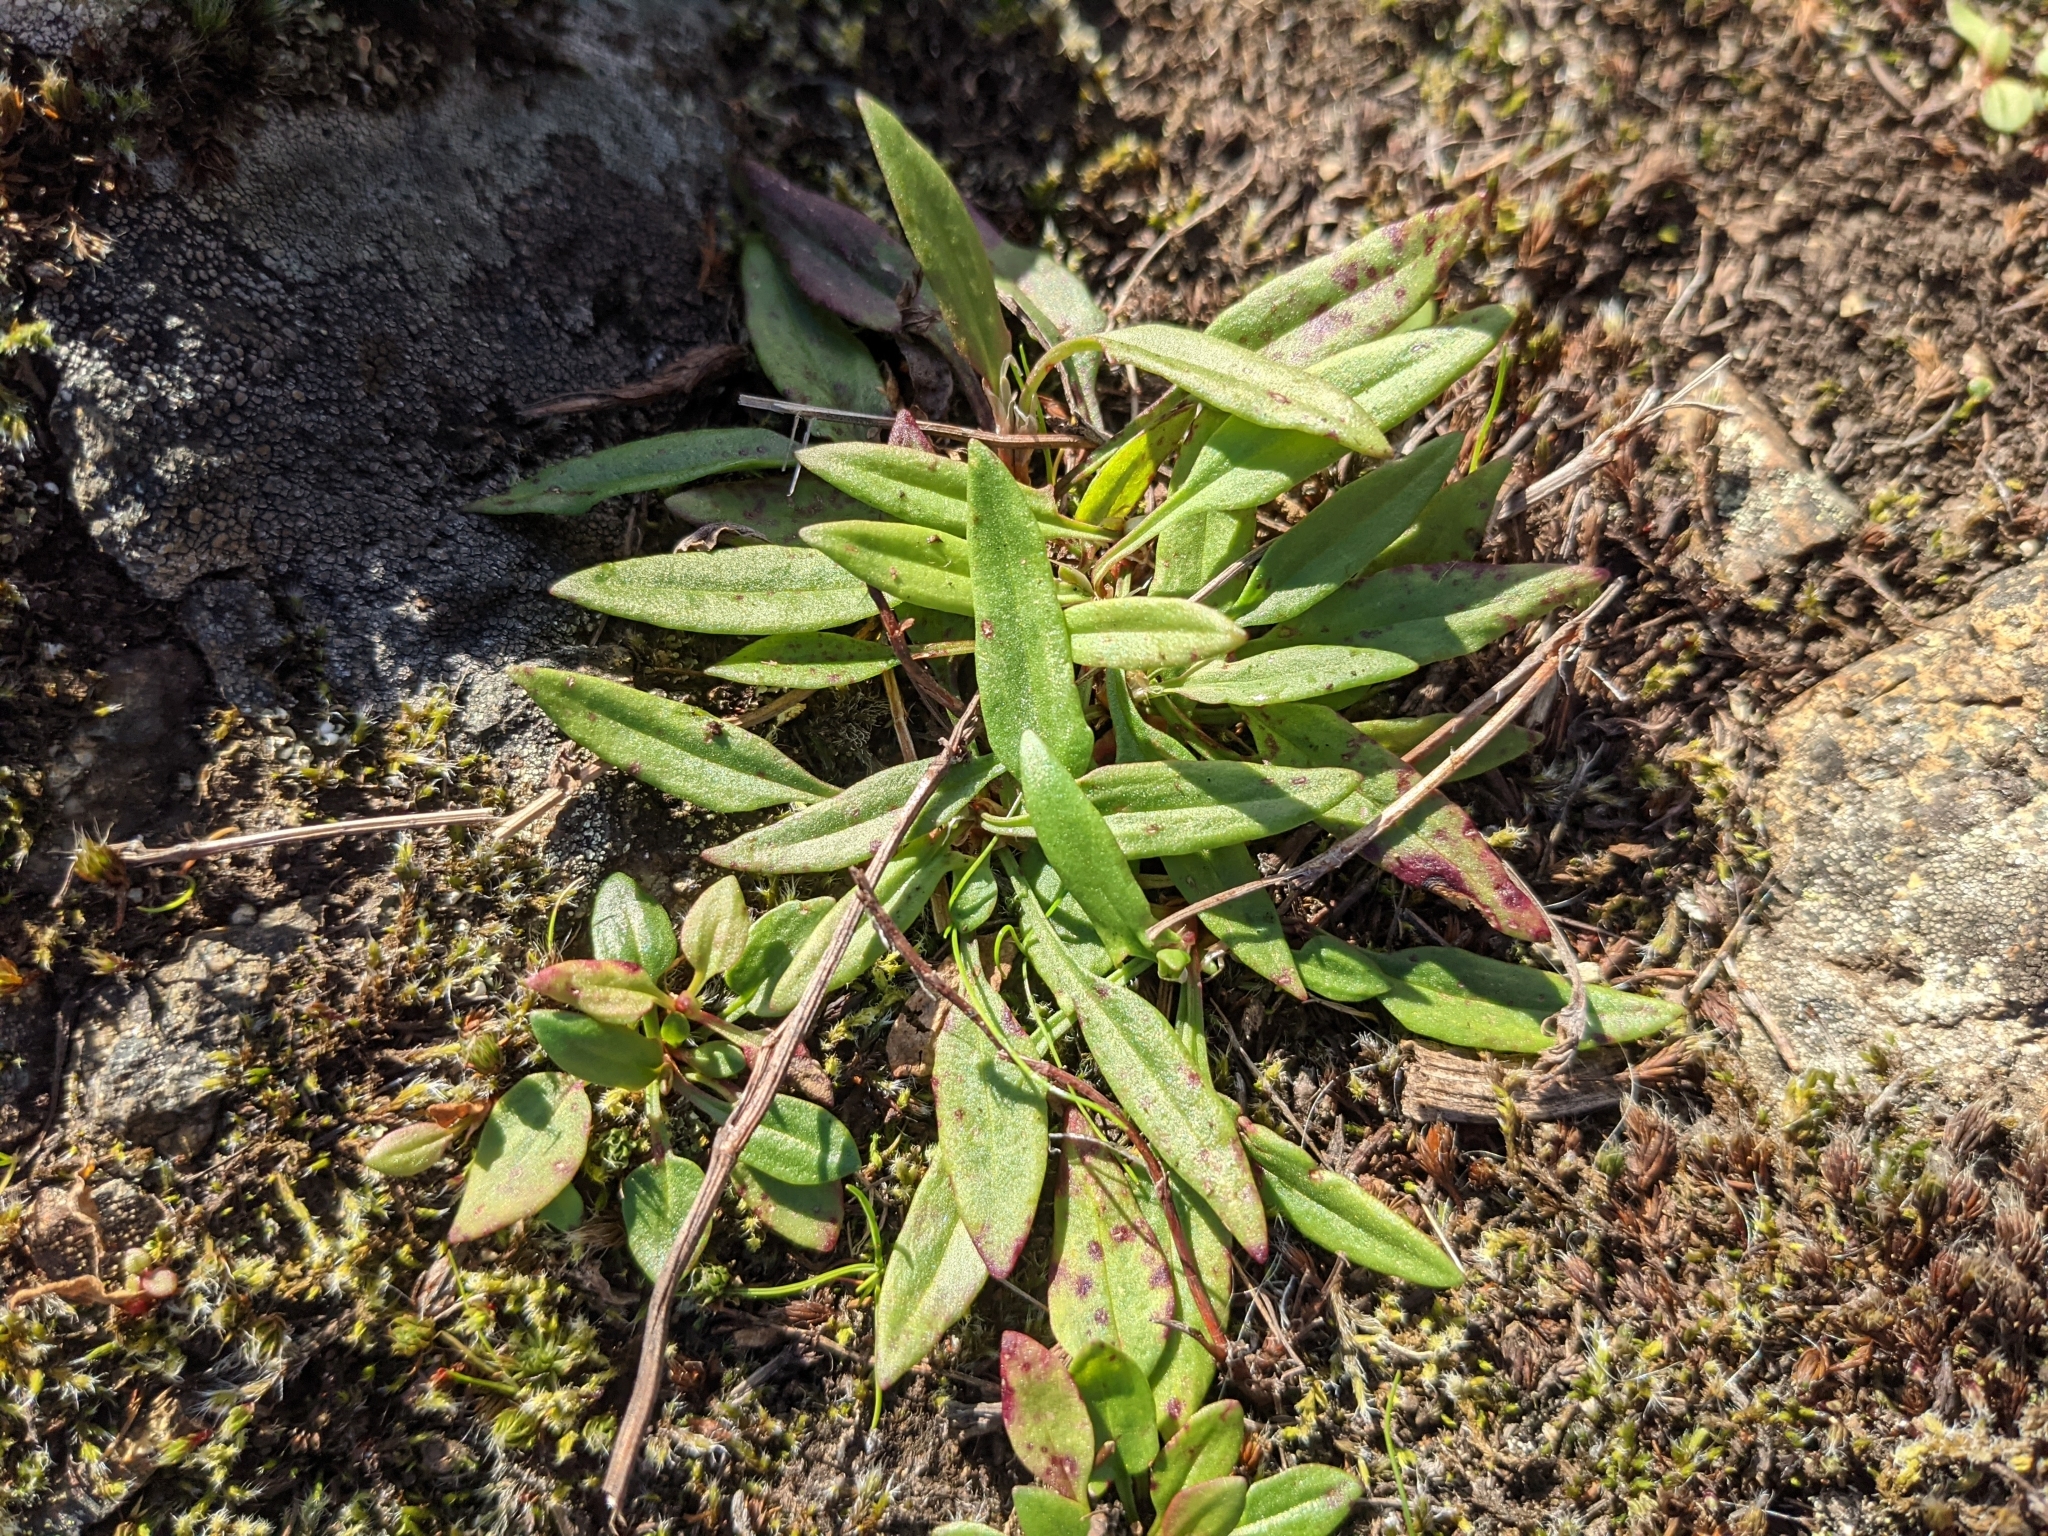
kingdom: Plantae
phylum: Tracheophyta
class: Magnoliopsida
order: Caryophyllales
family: Polygonaceae
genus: Rumex
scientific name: Rumex acetosella
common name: Common sheep sorrel
